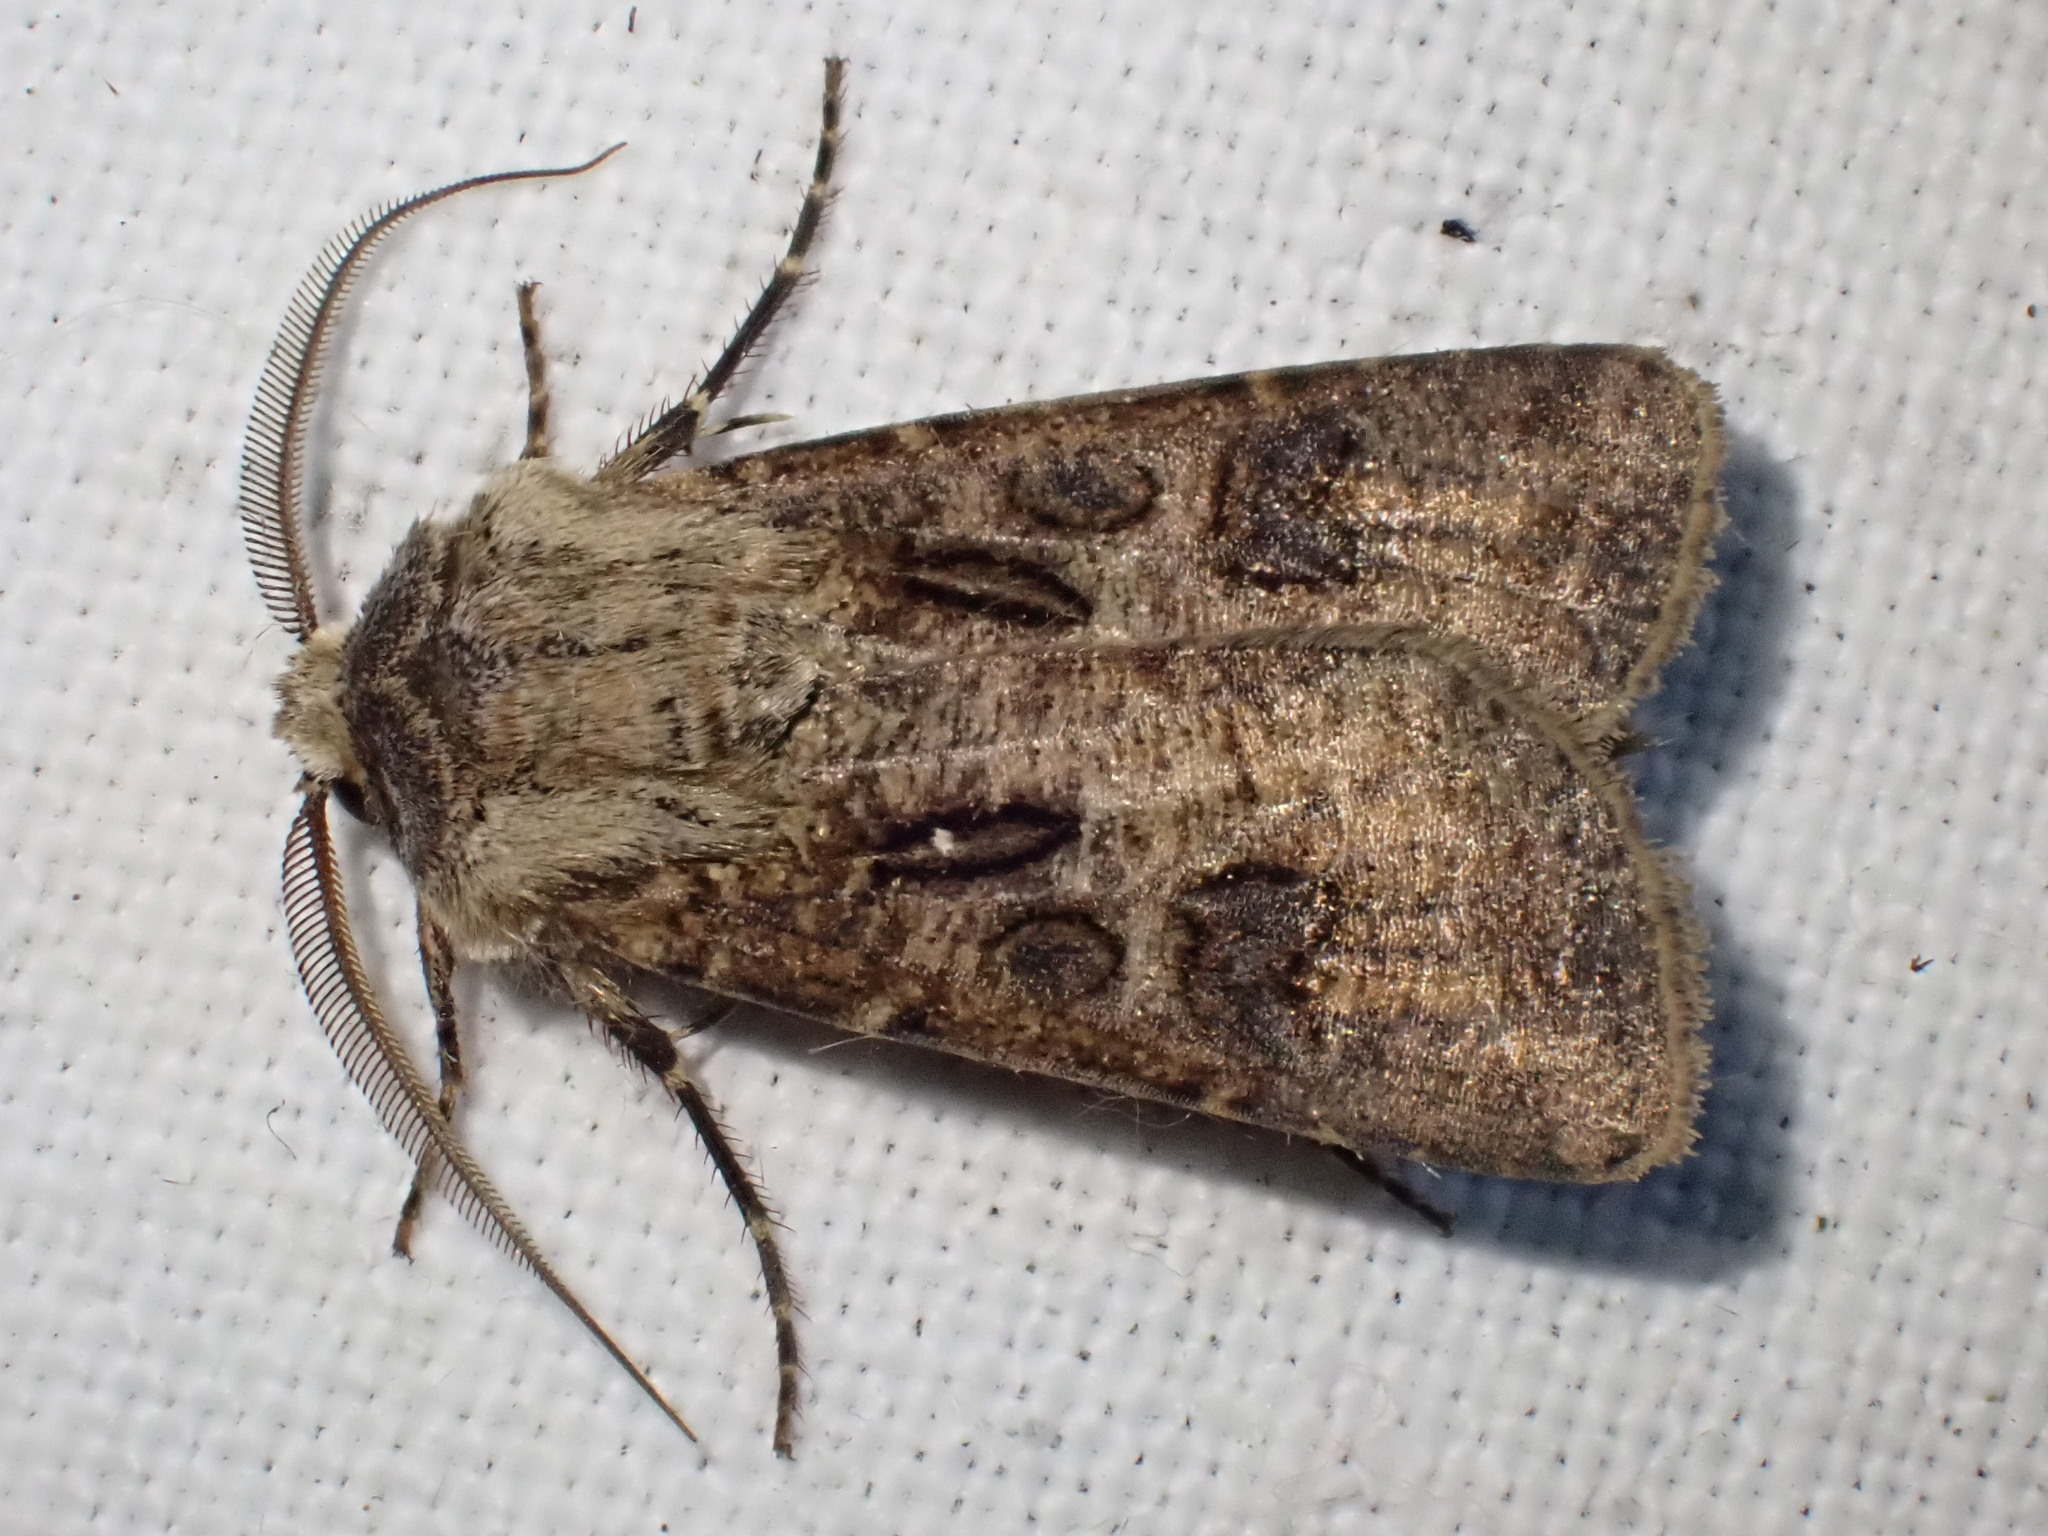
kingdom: Animalia
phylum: Arthropoda
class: Insecta
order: Lepidoptera
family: Noctuidae
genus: Agrotis
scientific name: Agrotis clavis
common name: Heart and club
